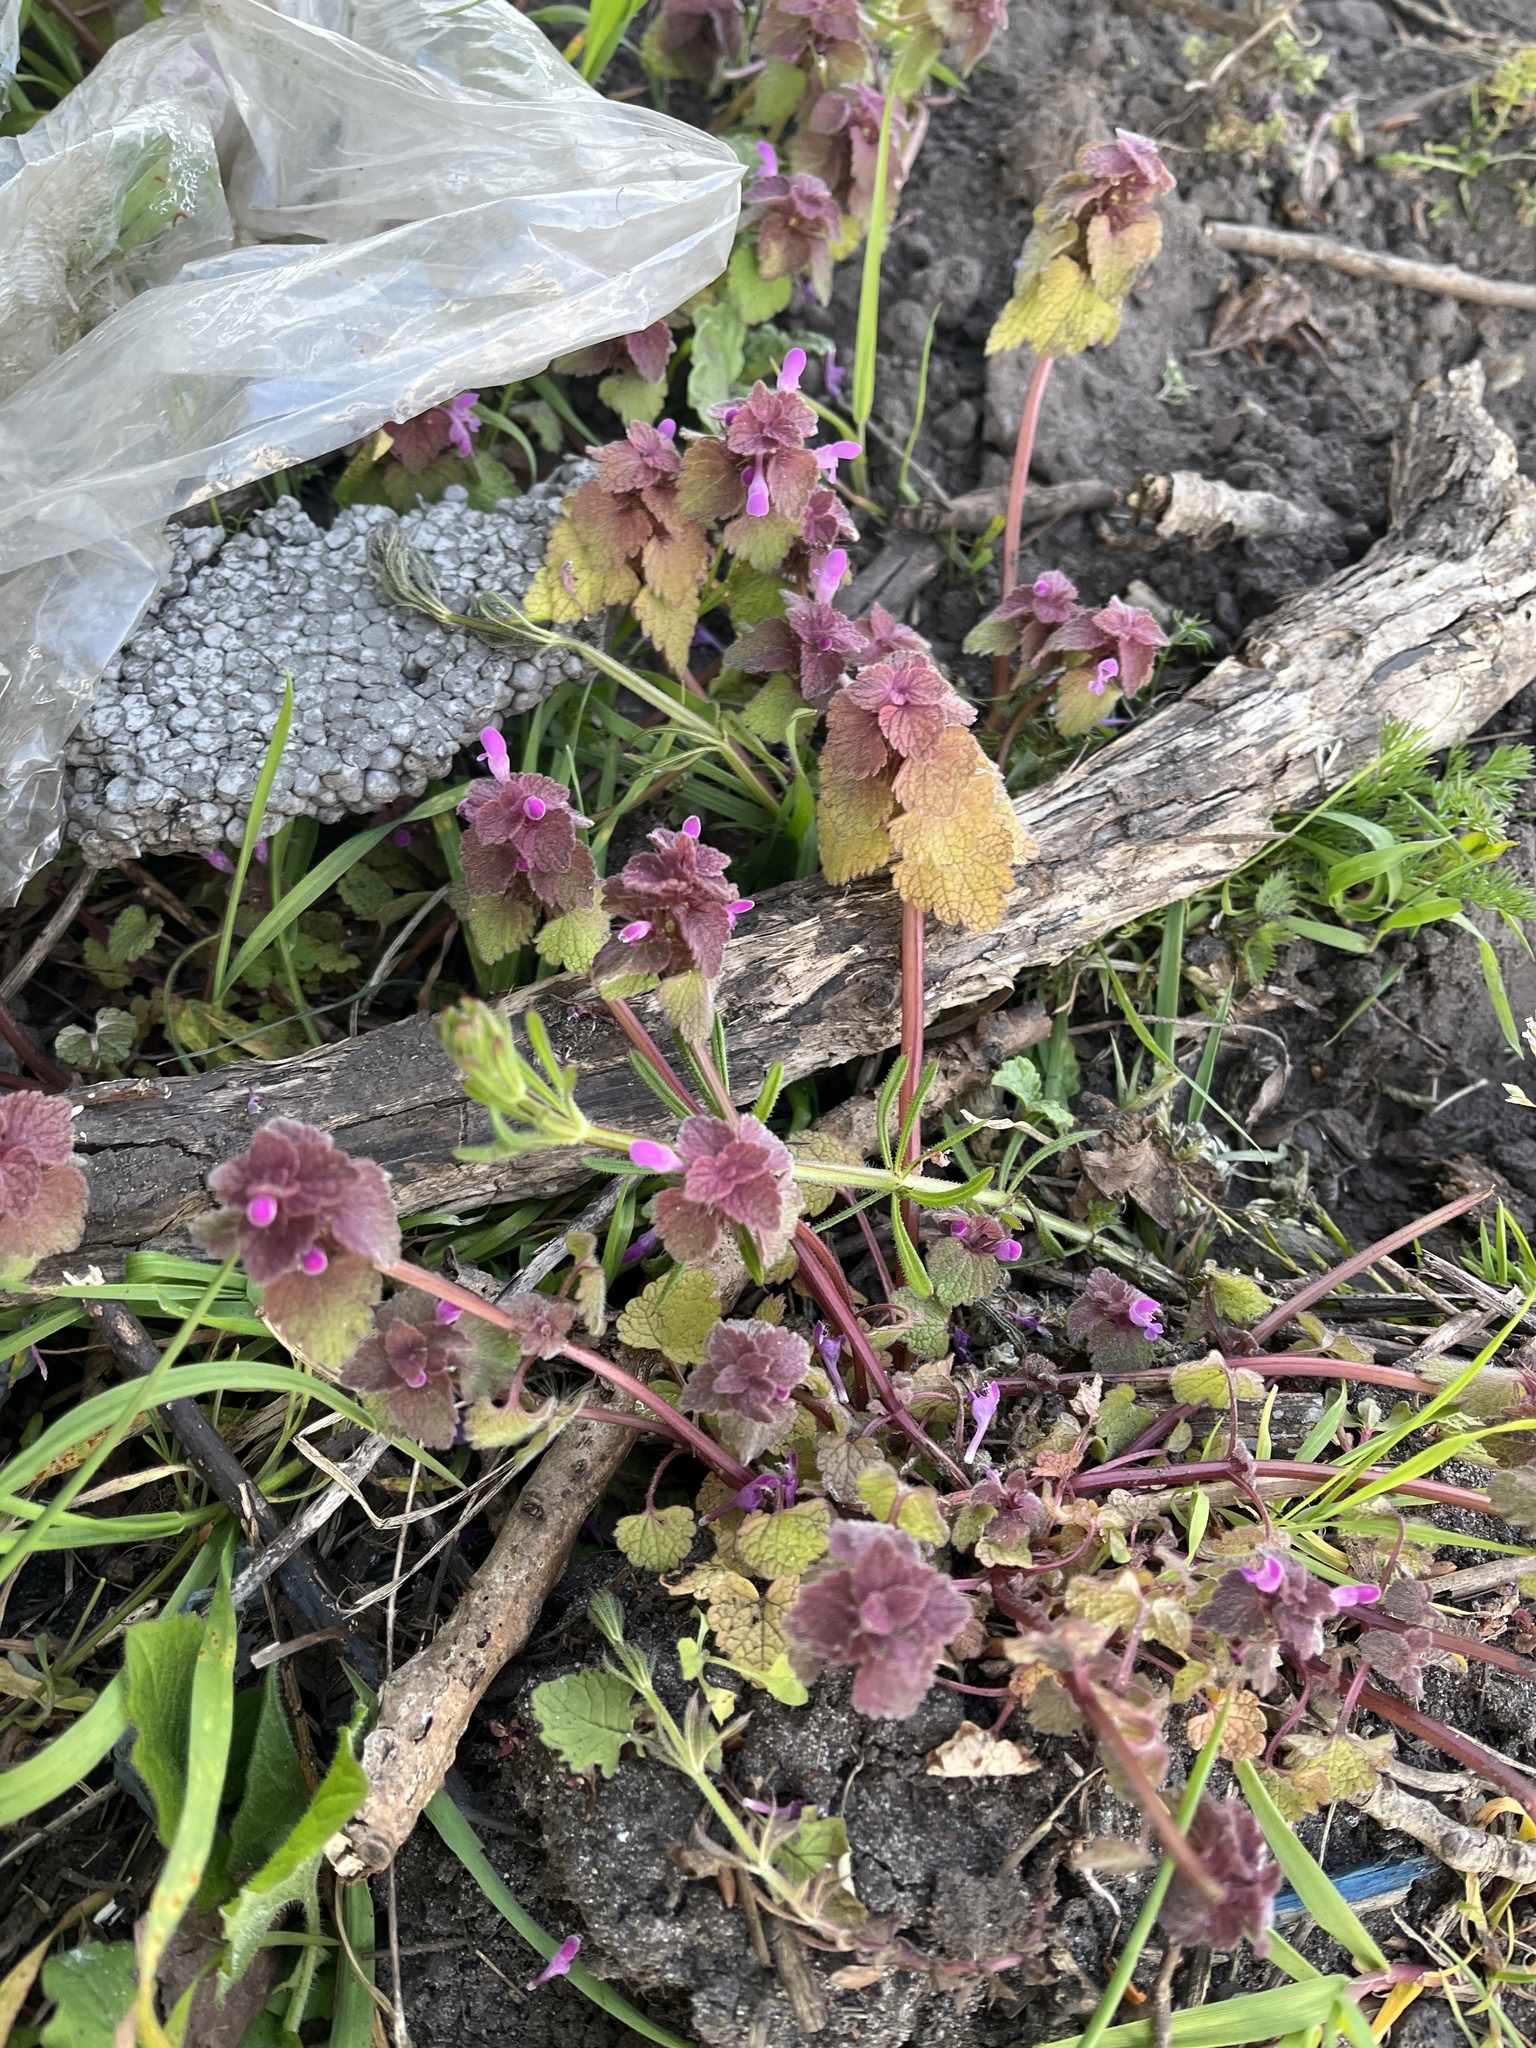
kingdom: Plantae
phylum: Tracheophyta
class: Magnoliopsida
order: Lamiales
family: Lamiaceae
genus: Lamium
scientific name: Lamium purpureum
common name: Red dead-nettle
